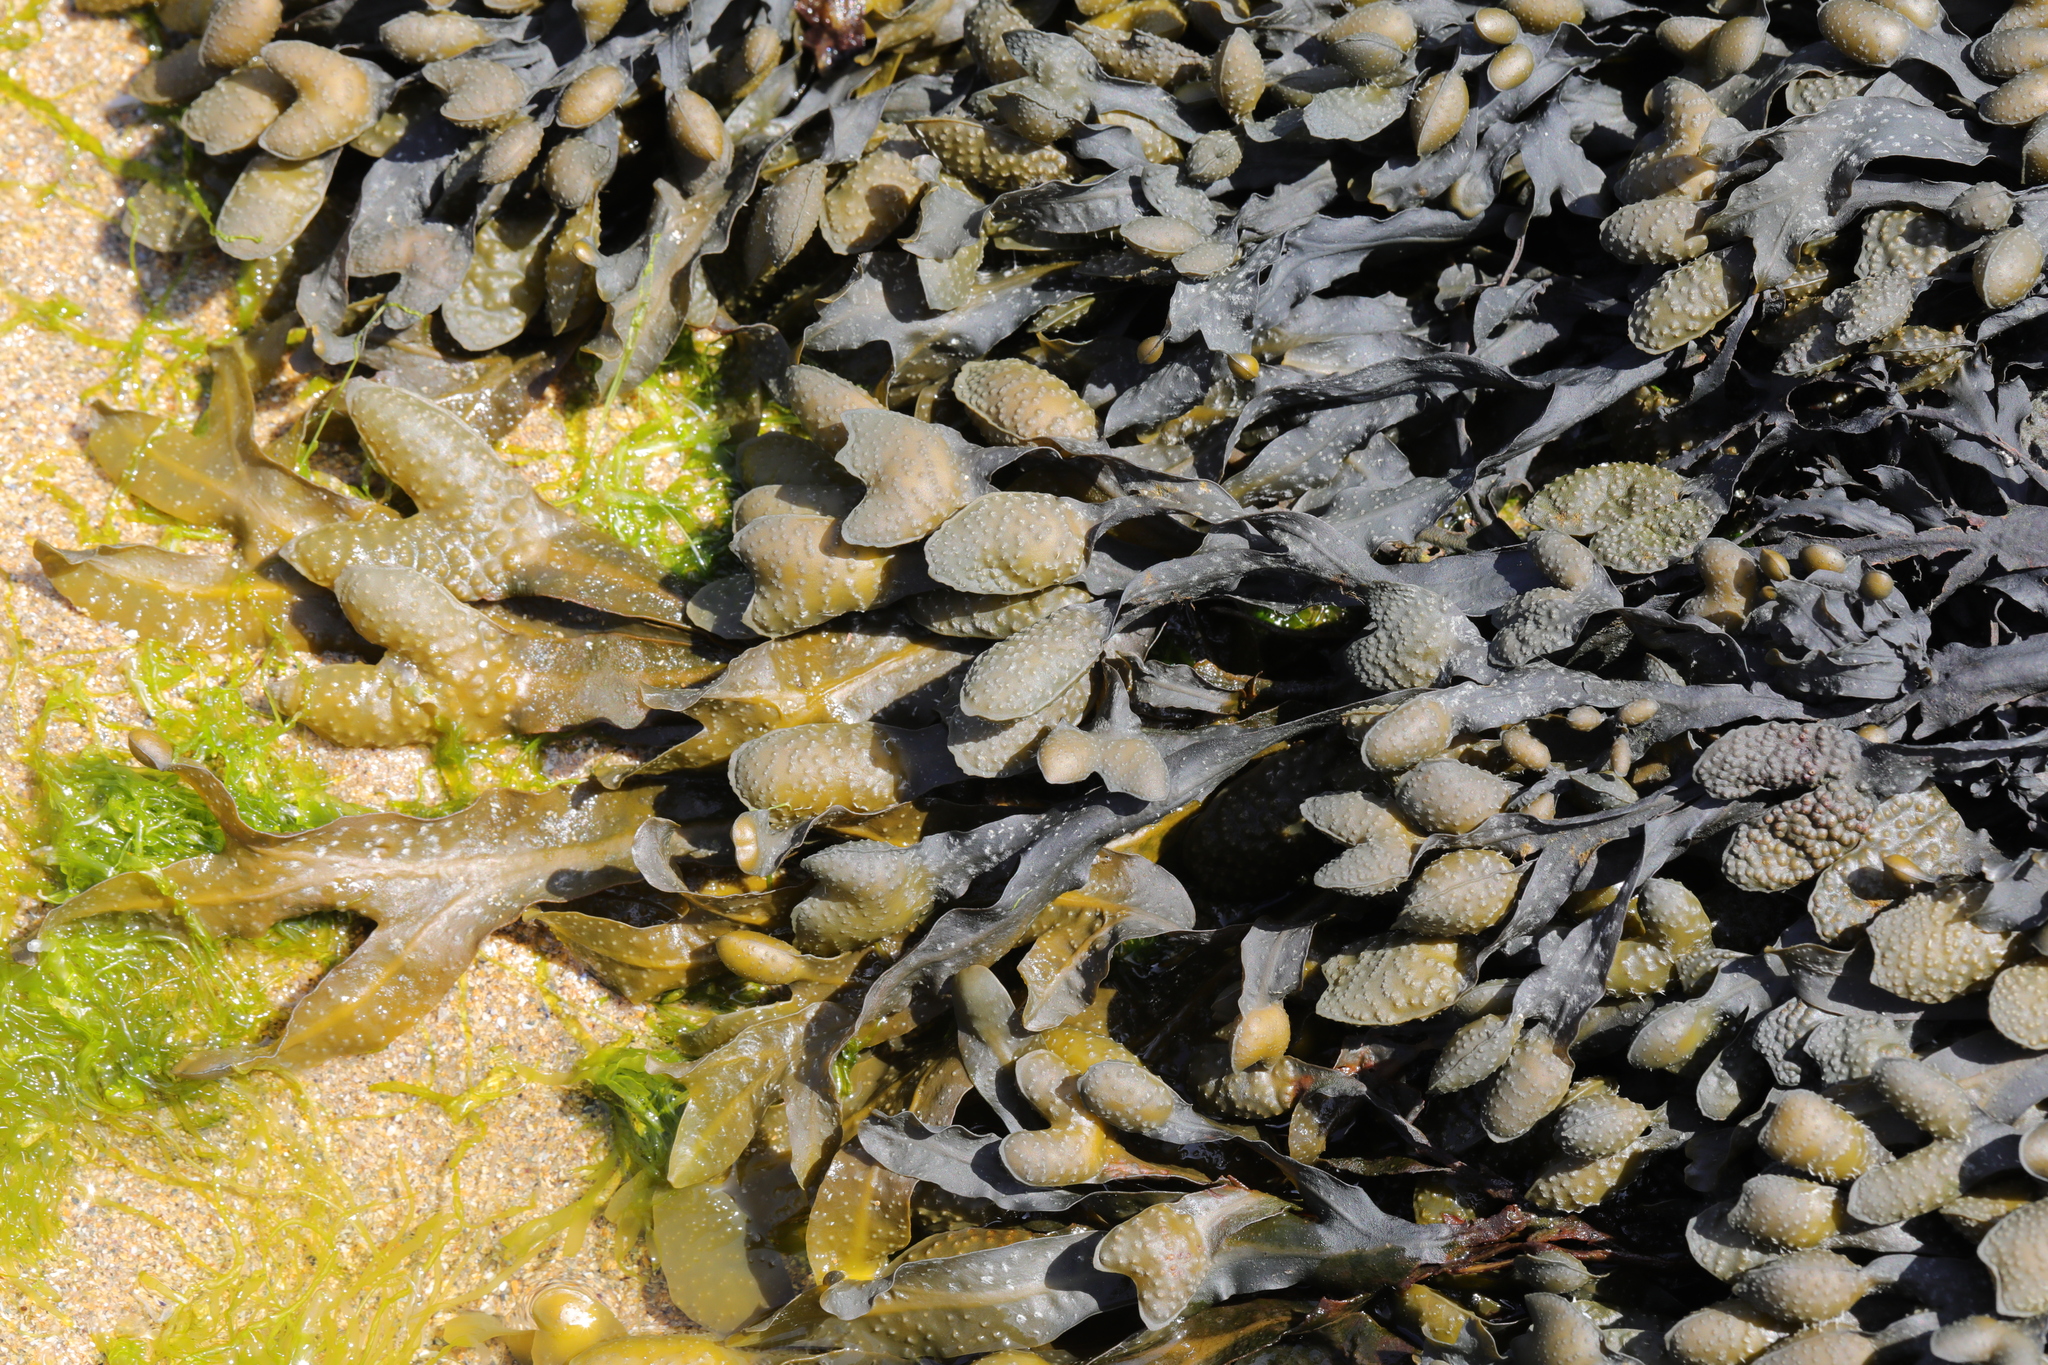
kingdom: Chromista
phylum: Ochrophyta
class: Phaeophyceae
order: Fucales
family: Fucaceae
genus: Fucus
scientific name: Fucus spiralis
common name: Spiral wrack
